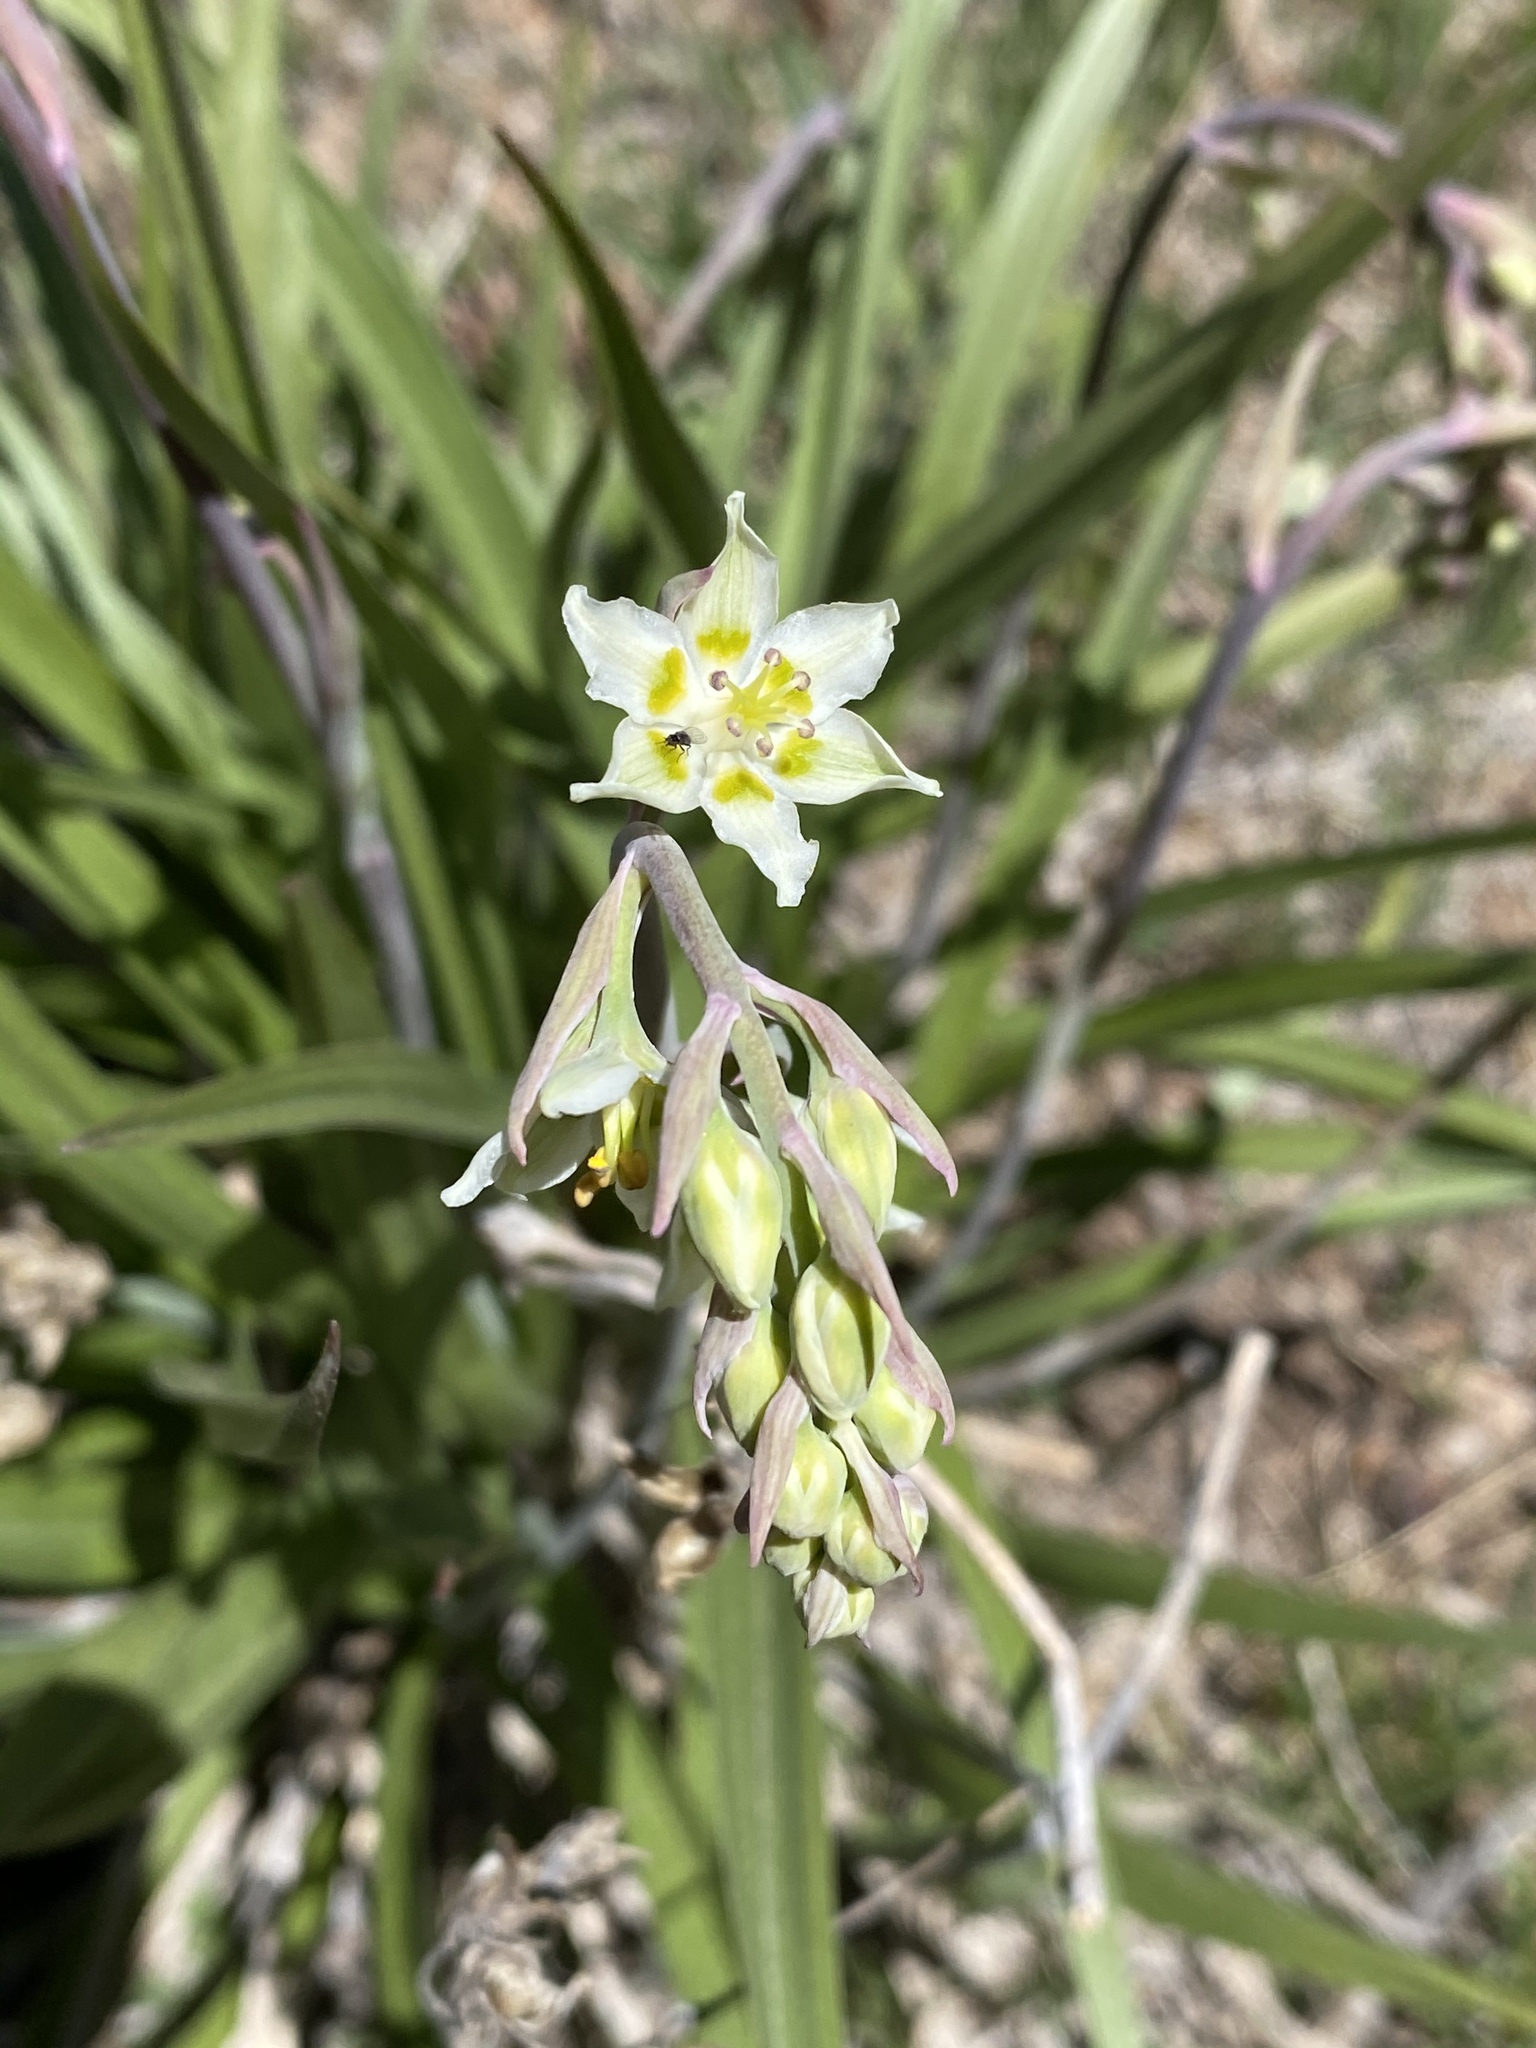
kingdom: Plantae
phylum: Tracheophyta
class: Liliopsida
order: Liliales
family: Melanthiaceae
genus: Anticlea
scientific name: Anticlea elegans
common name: Mountain death camas
